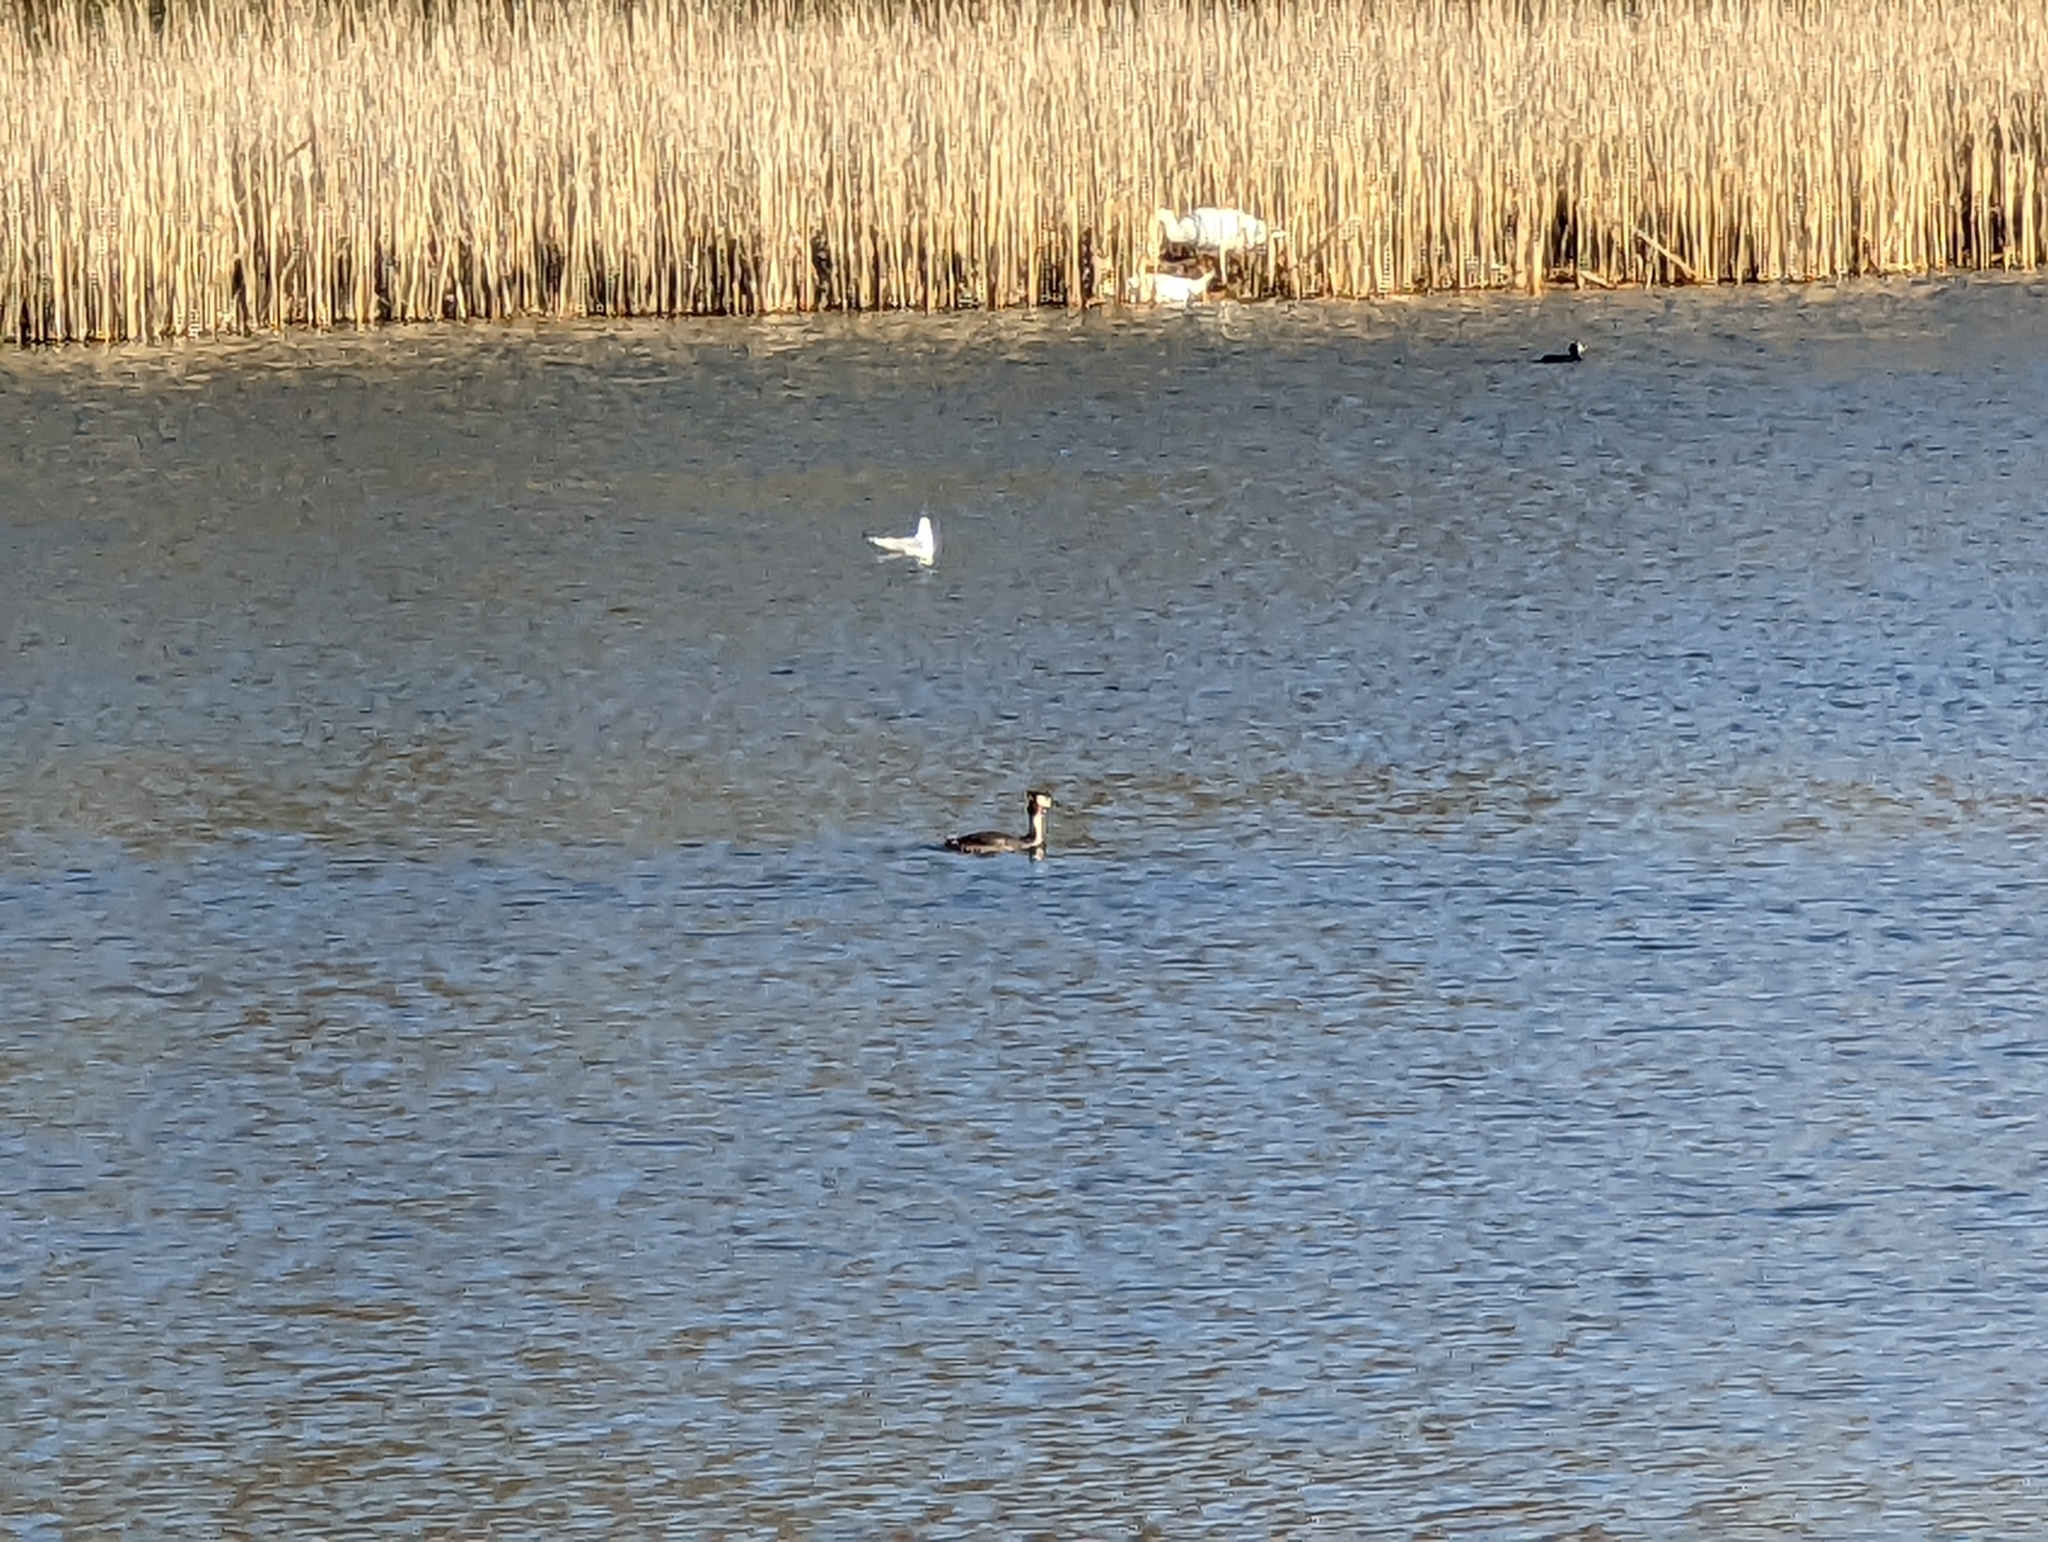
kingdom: Animalia
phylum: Chordata
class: Aves
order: Podicipediformes
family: Podicipedidae
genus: Podiceps
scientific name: Podiceps cristatus
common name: Great crested grebe
